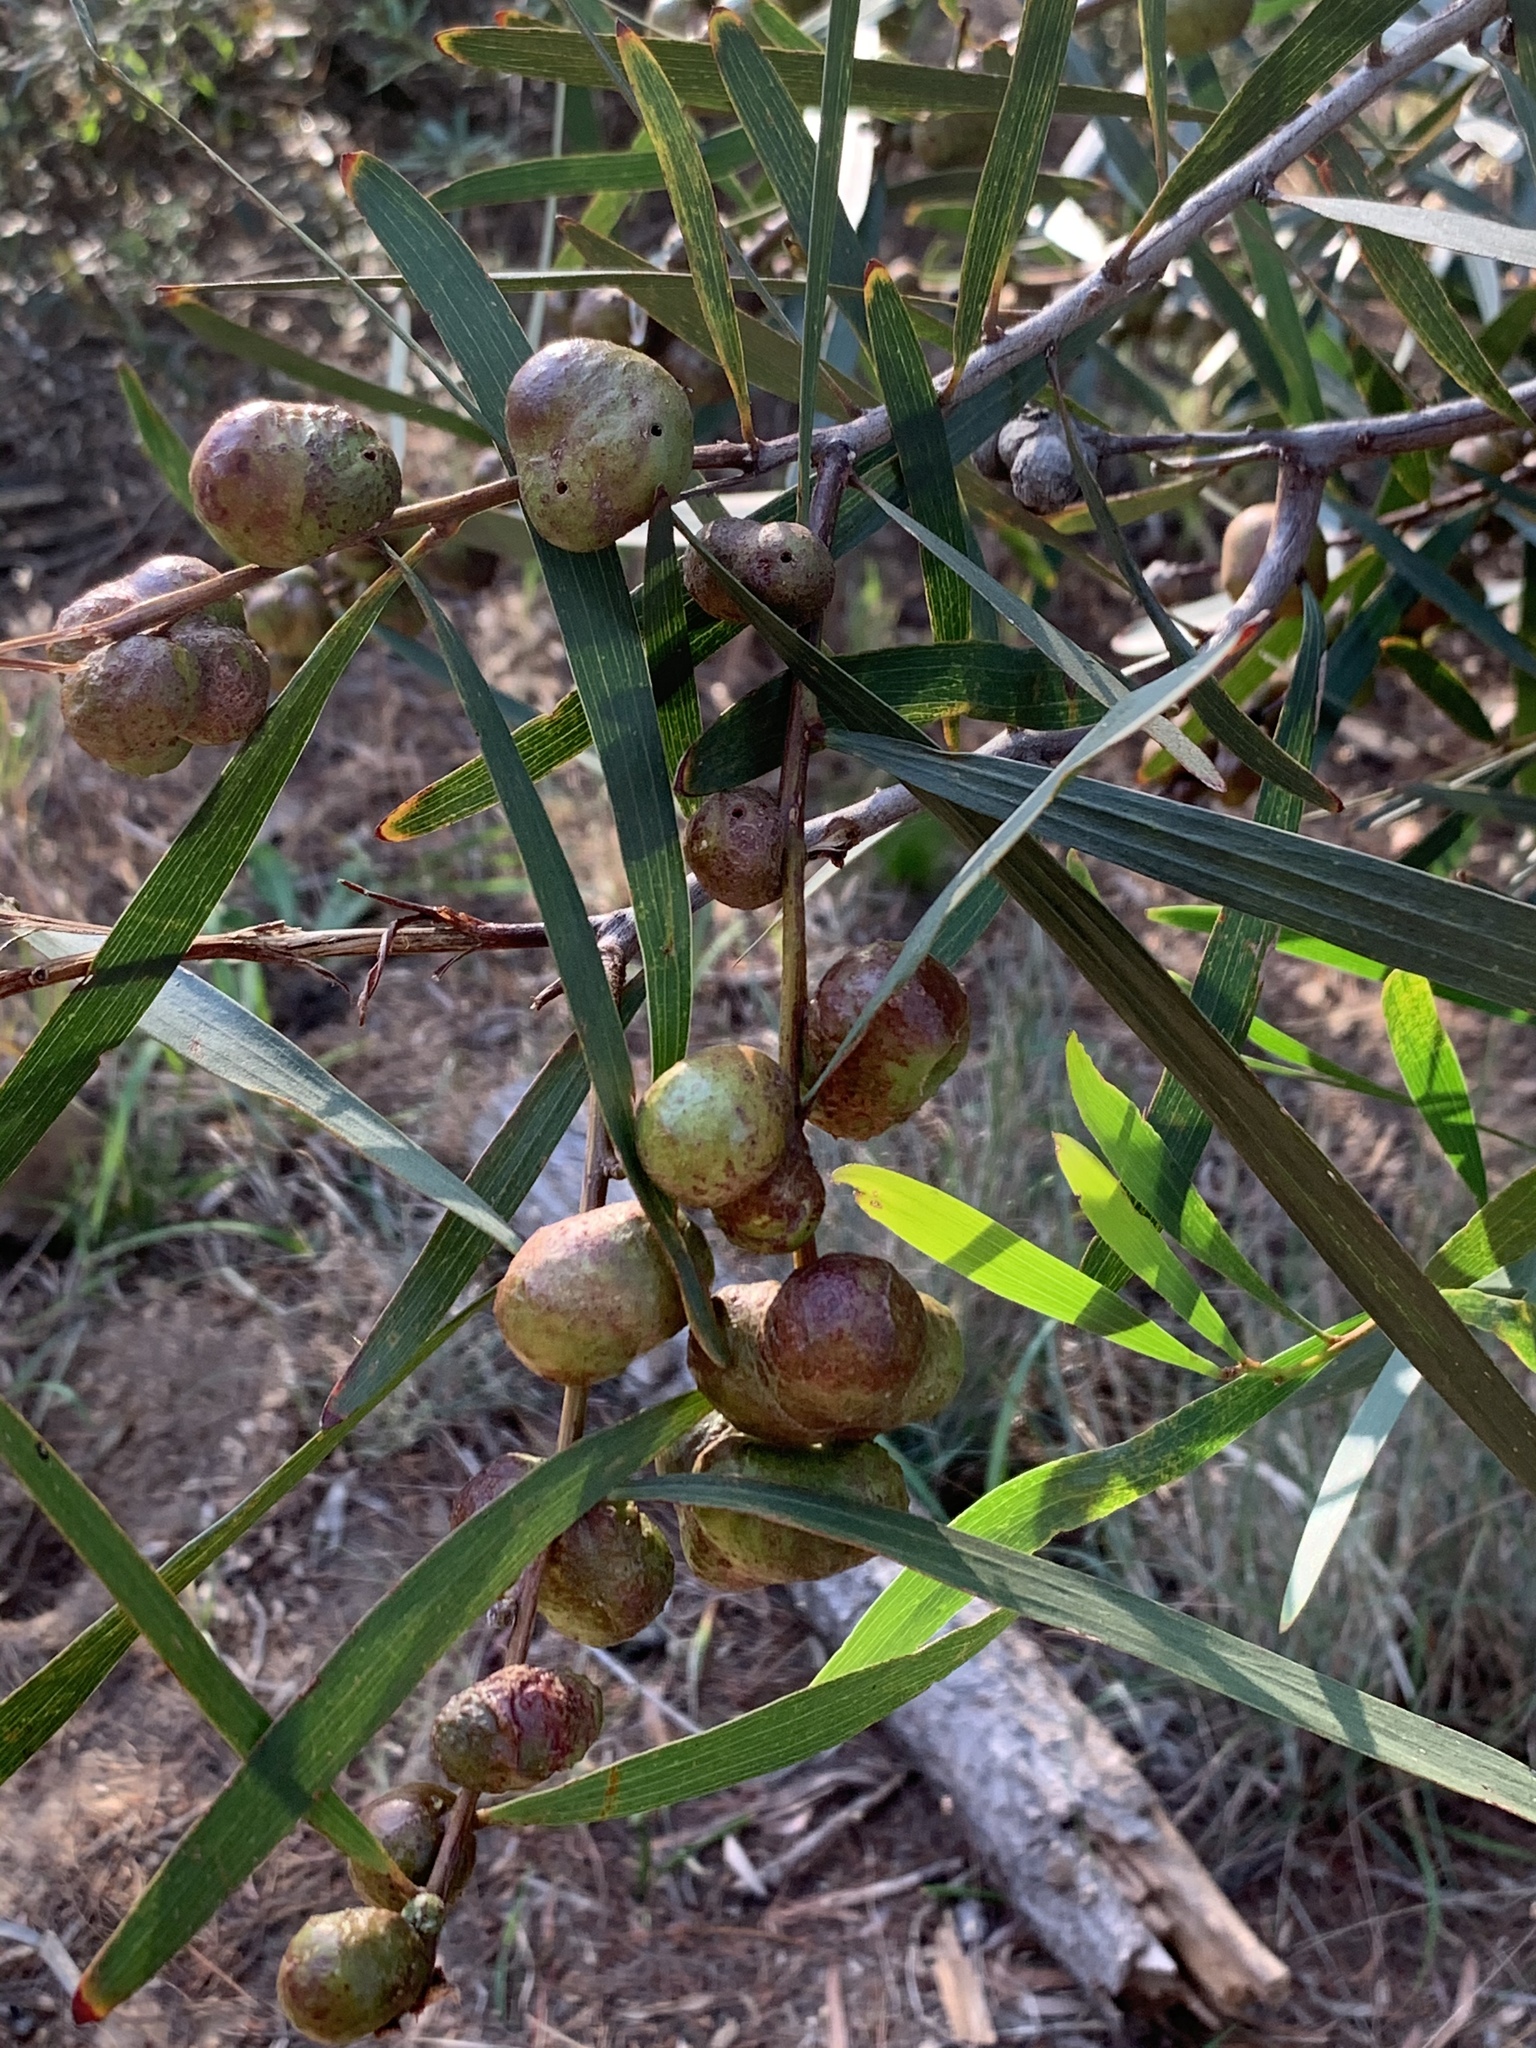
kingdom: Plantae
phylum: Tracheophyta
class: Magnoliopsida
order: Fabales
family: Fabaceae
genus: Acacia
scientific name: Acacia longifolia
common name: Sydney golden wattle
